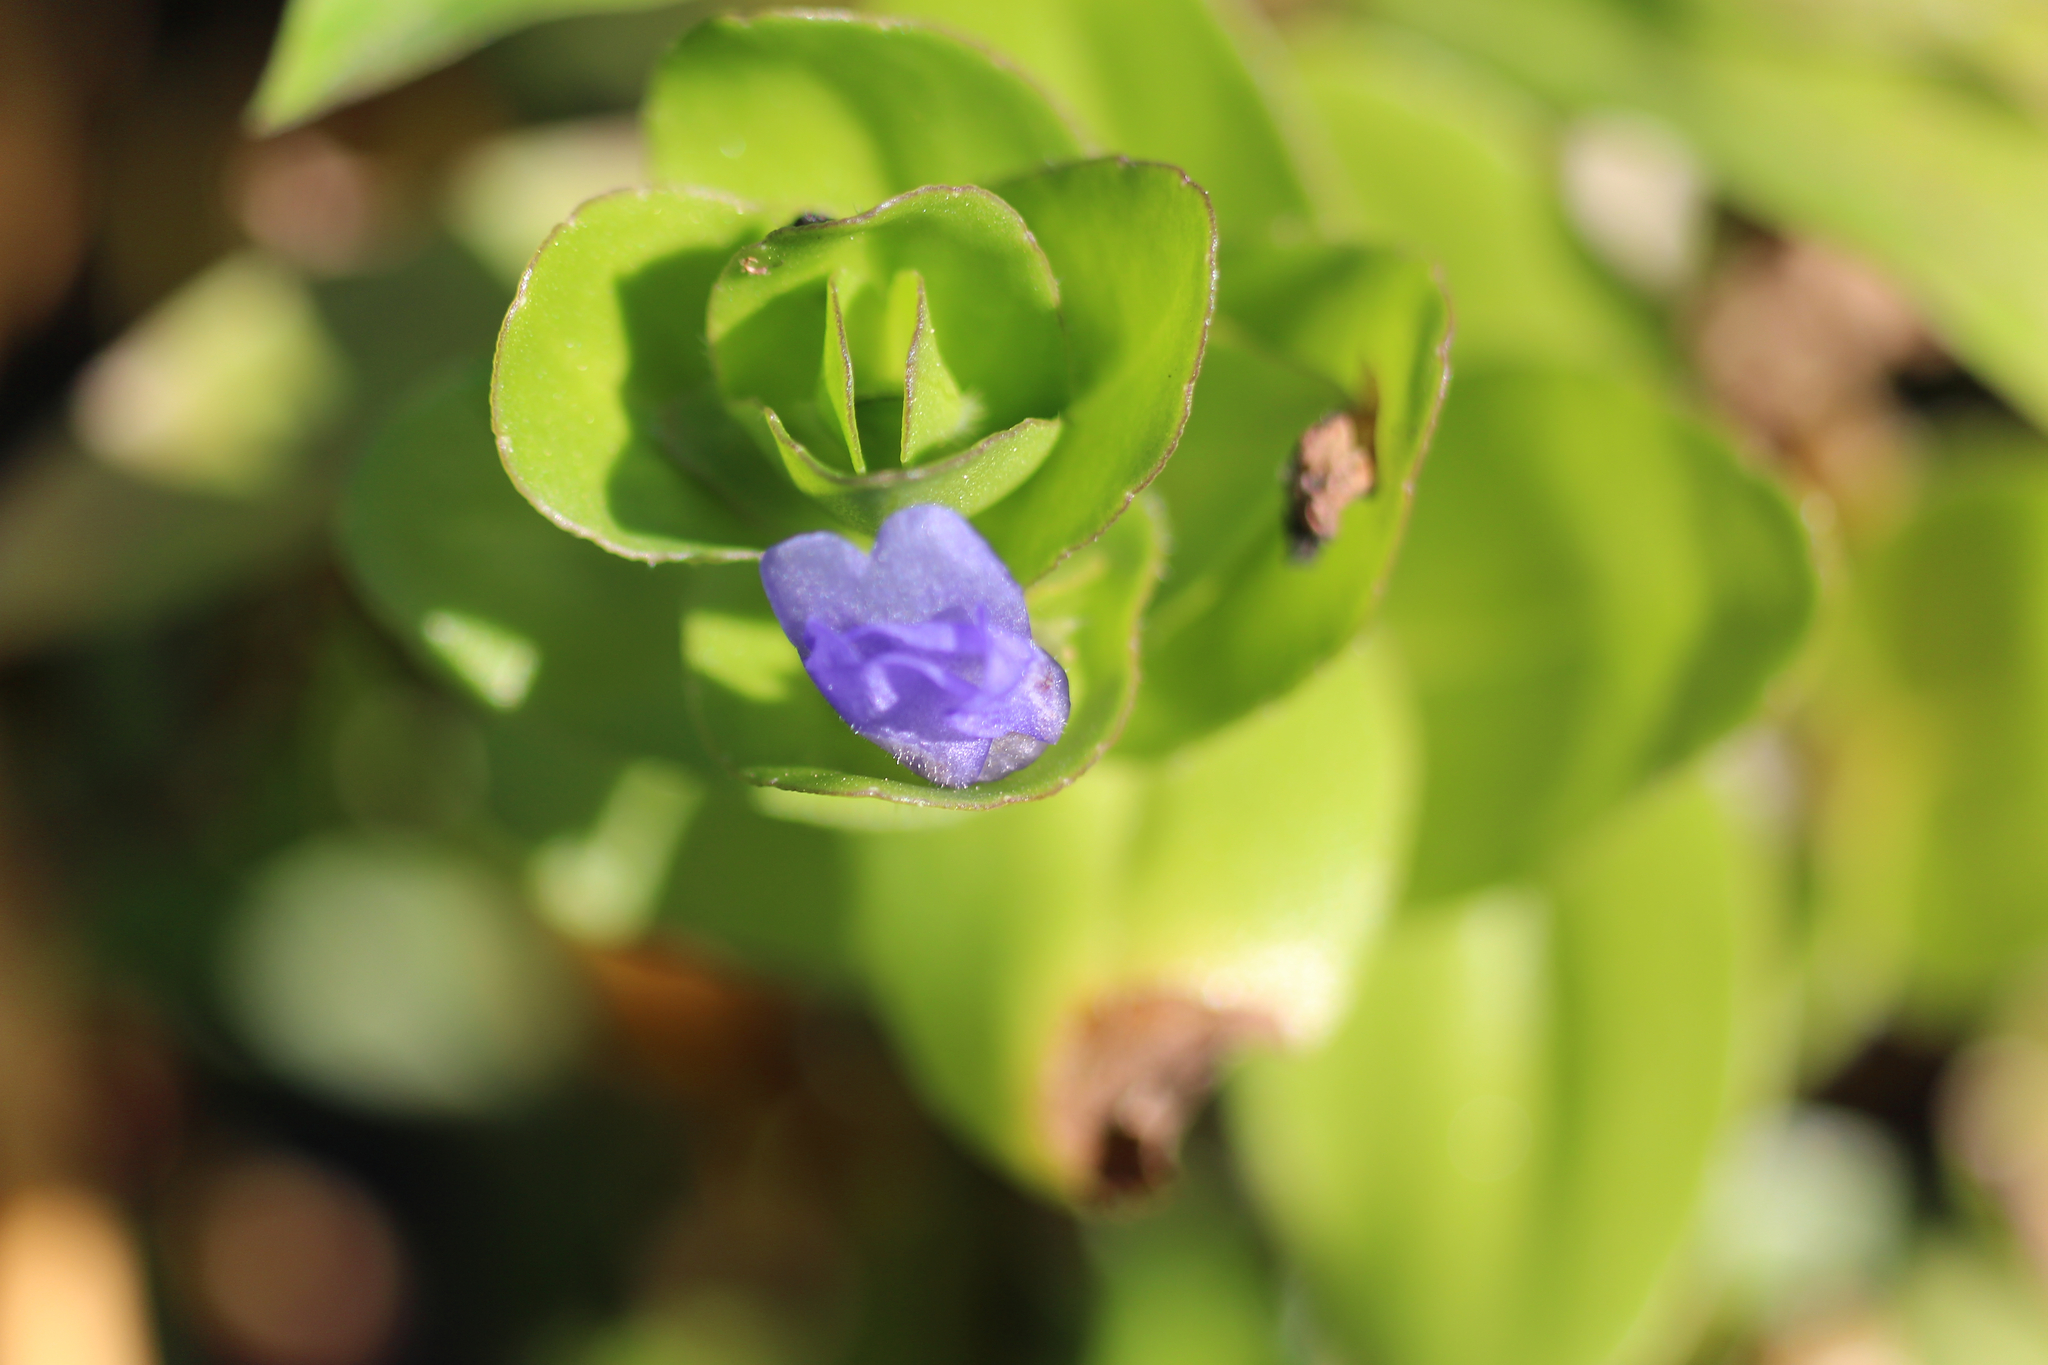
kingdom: Plantae
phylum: Tracheophyta
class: Magnoliopsida
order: Lamiales
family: Plantaginaceae
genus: Bacopa
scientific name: Bacopa caroliniana
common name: Lemon bacopa
